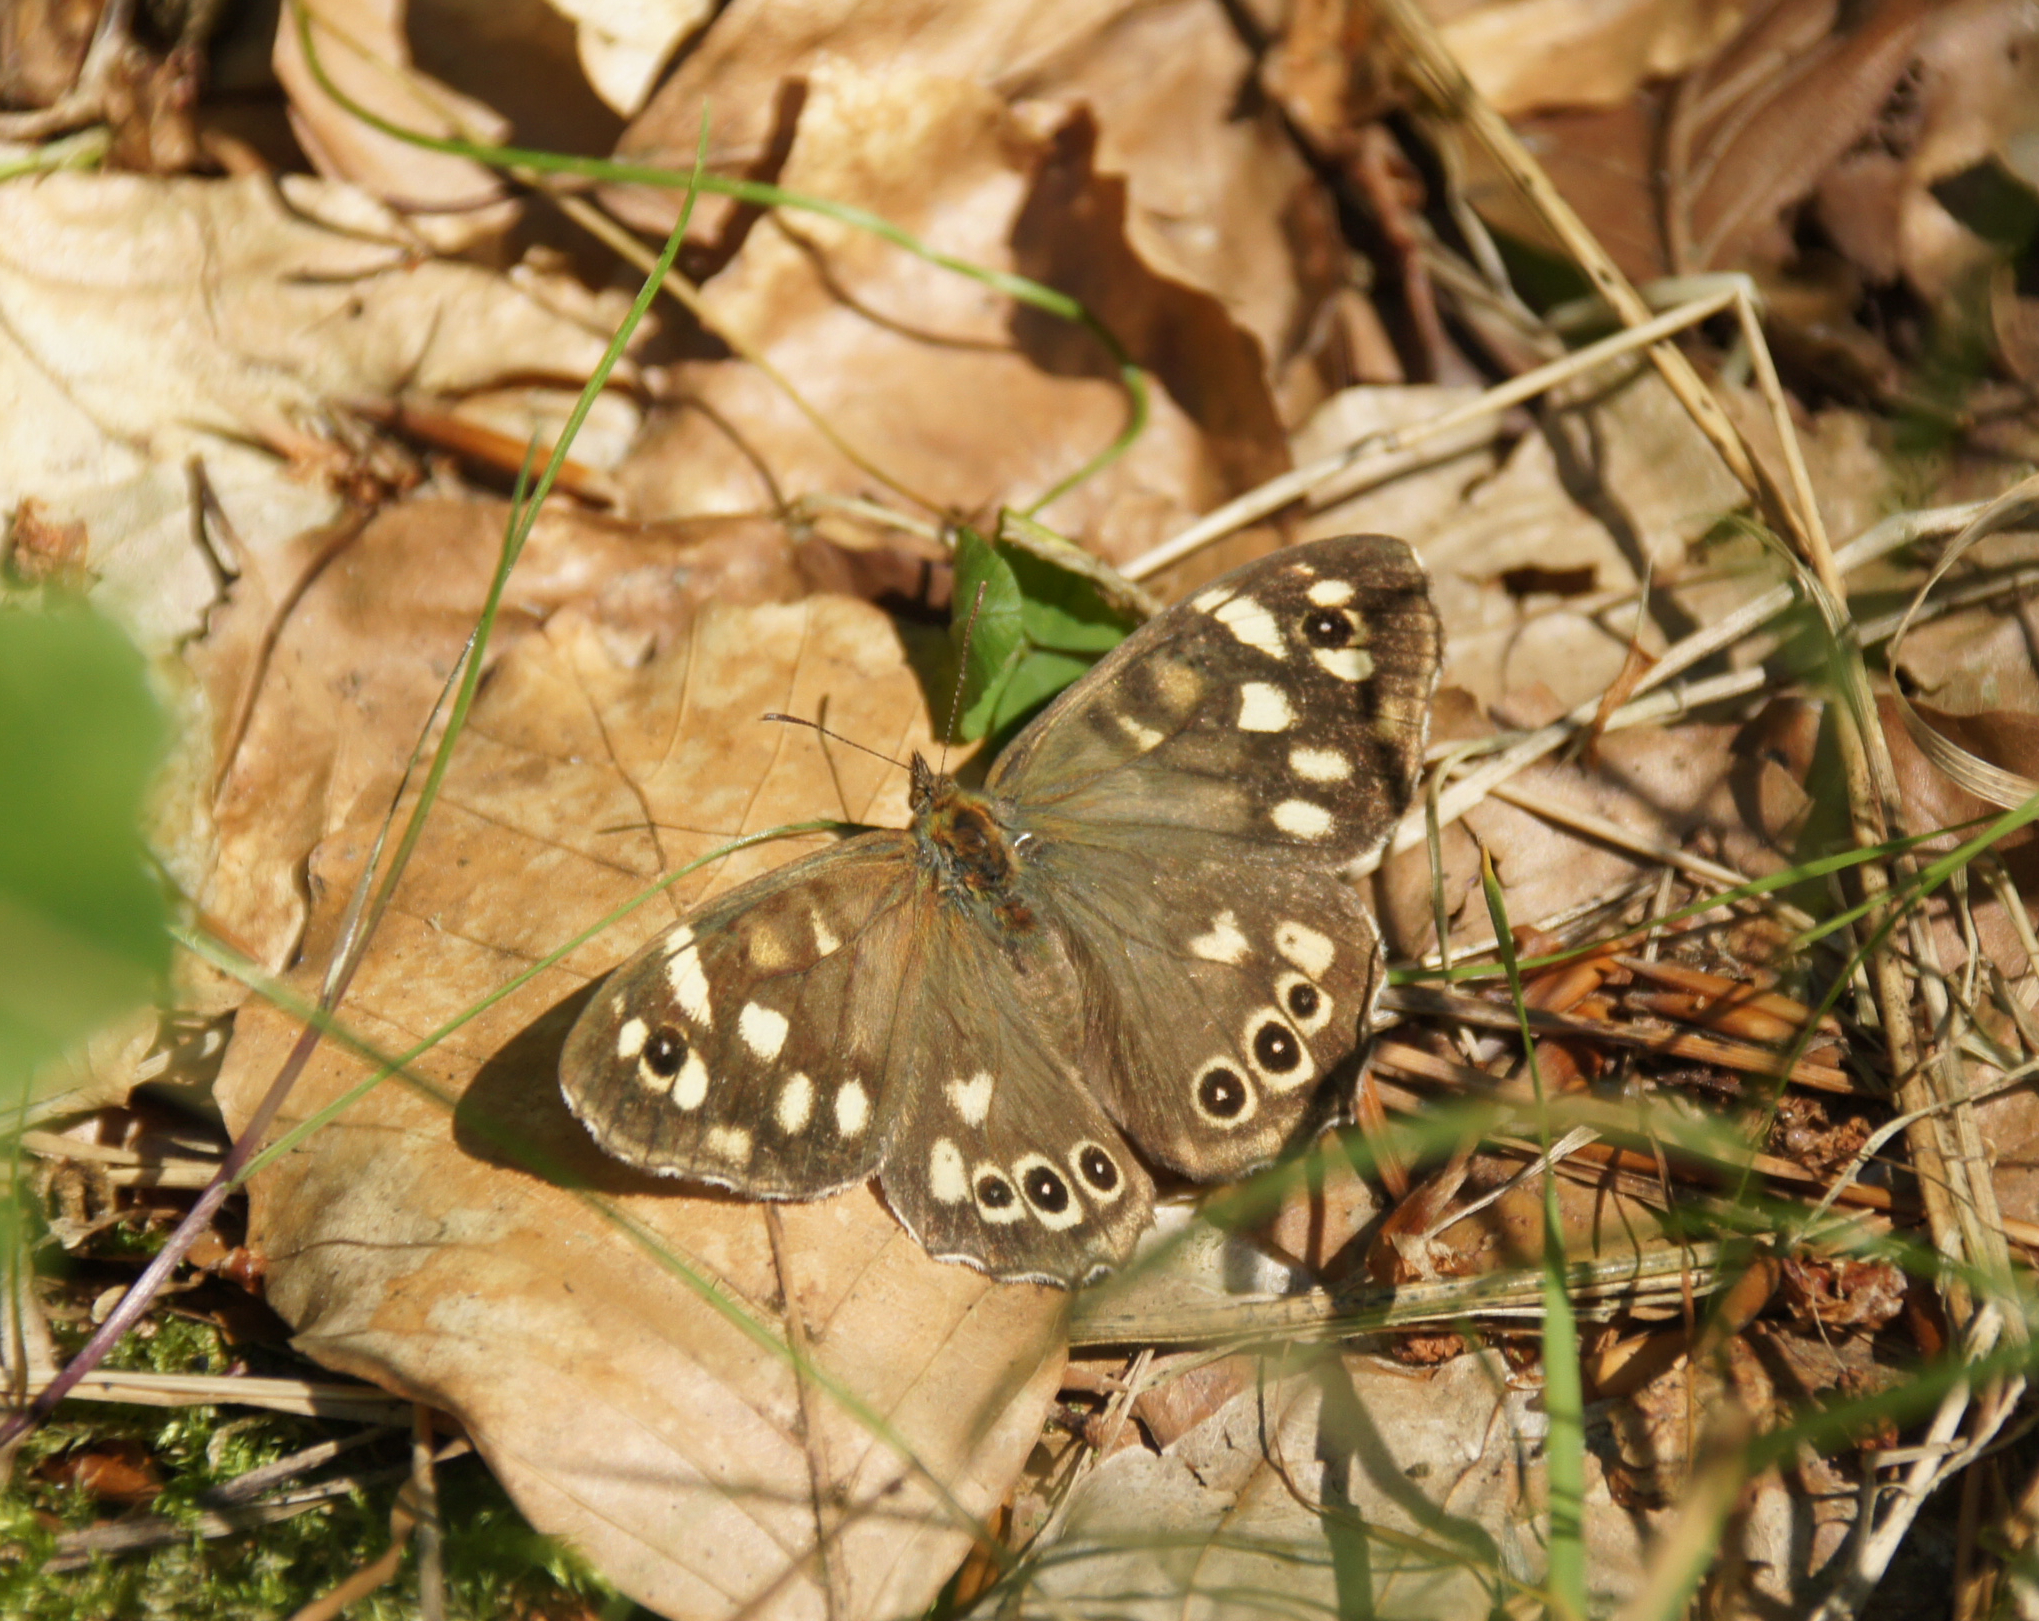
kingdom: Animalia
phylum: Arthropoda
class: Insecta
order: Lepidoptera
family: Nymphalidae
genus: Pararge
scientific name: Pararge aegeria
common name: Speckled wood
